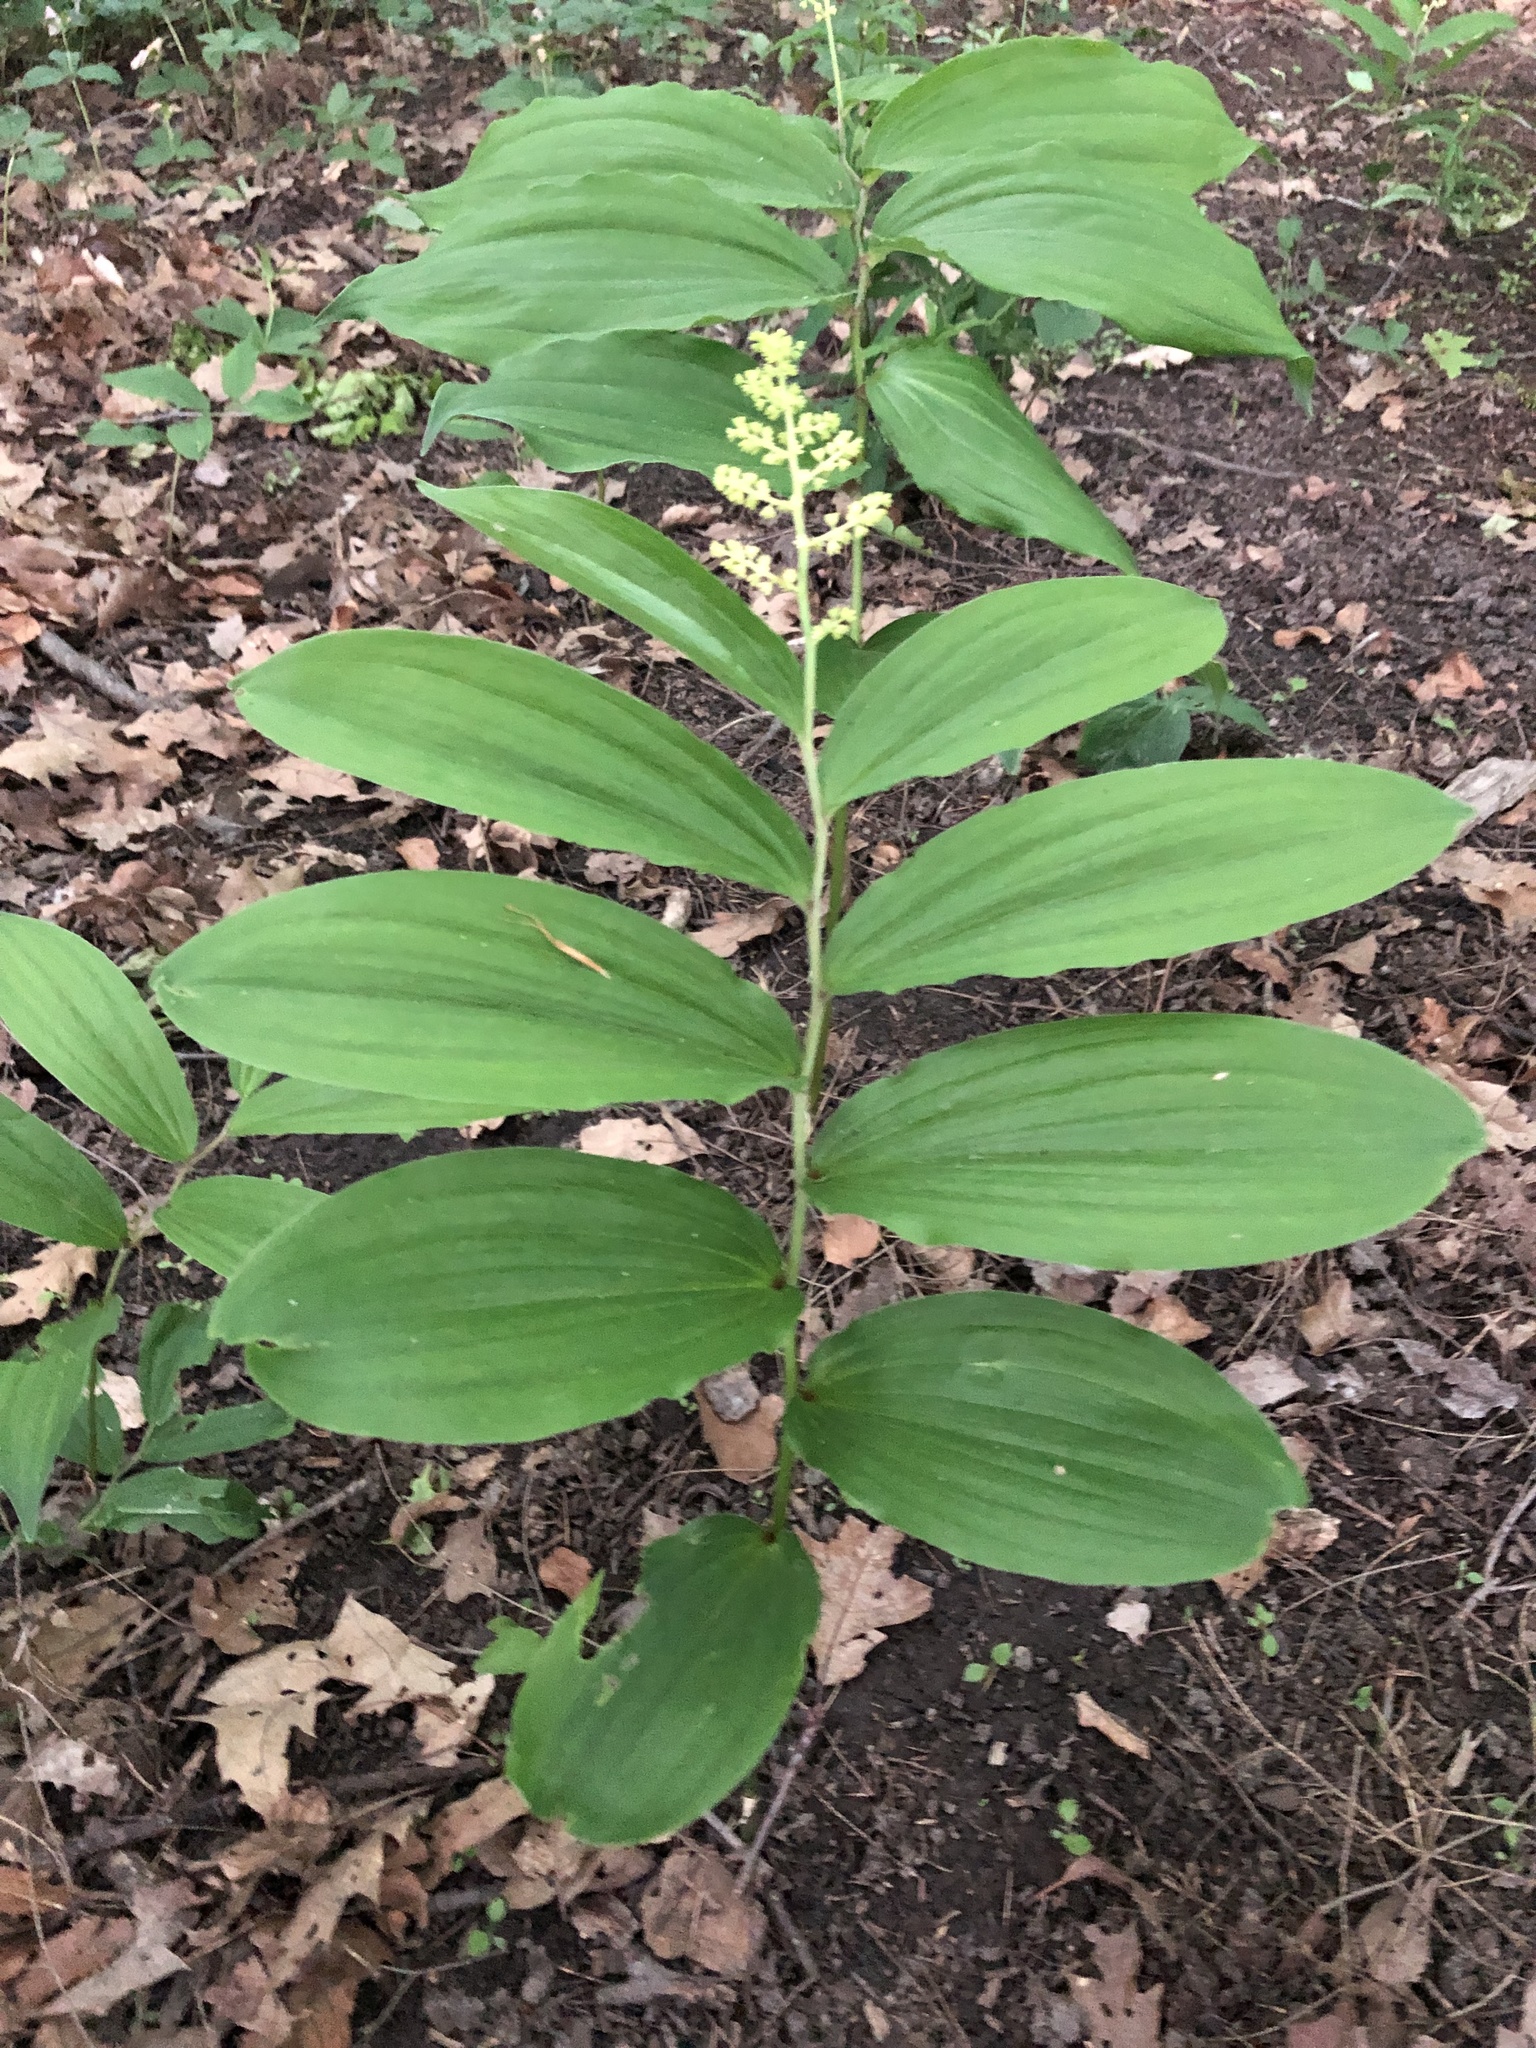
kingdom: Plantae
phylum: Tracheophyta
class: Liliopsida
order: Asparagales
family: Asparagaceae
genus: Maianthemum
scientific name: Maianthemum racemosum
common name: False spikenard
